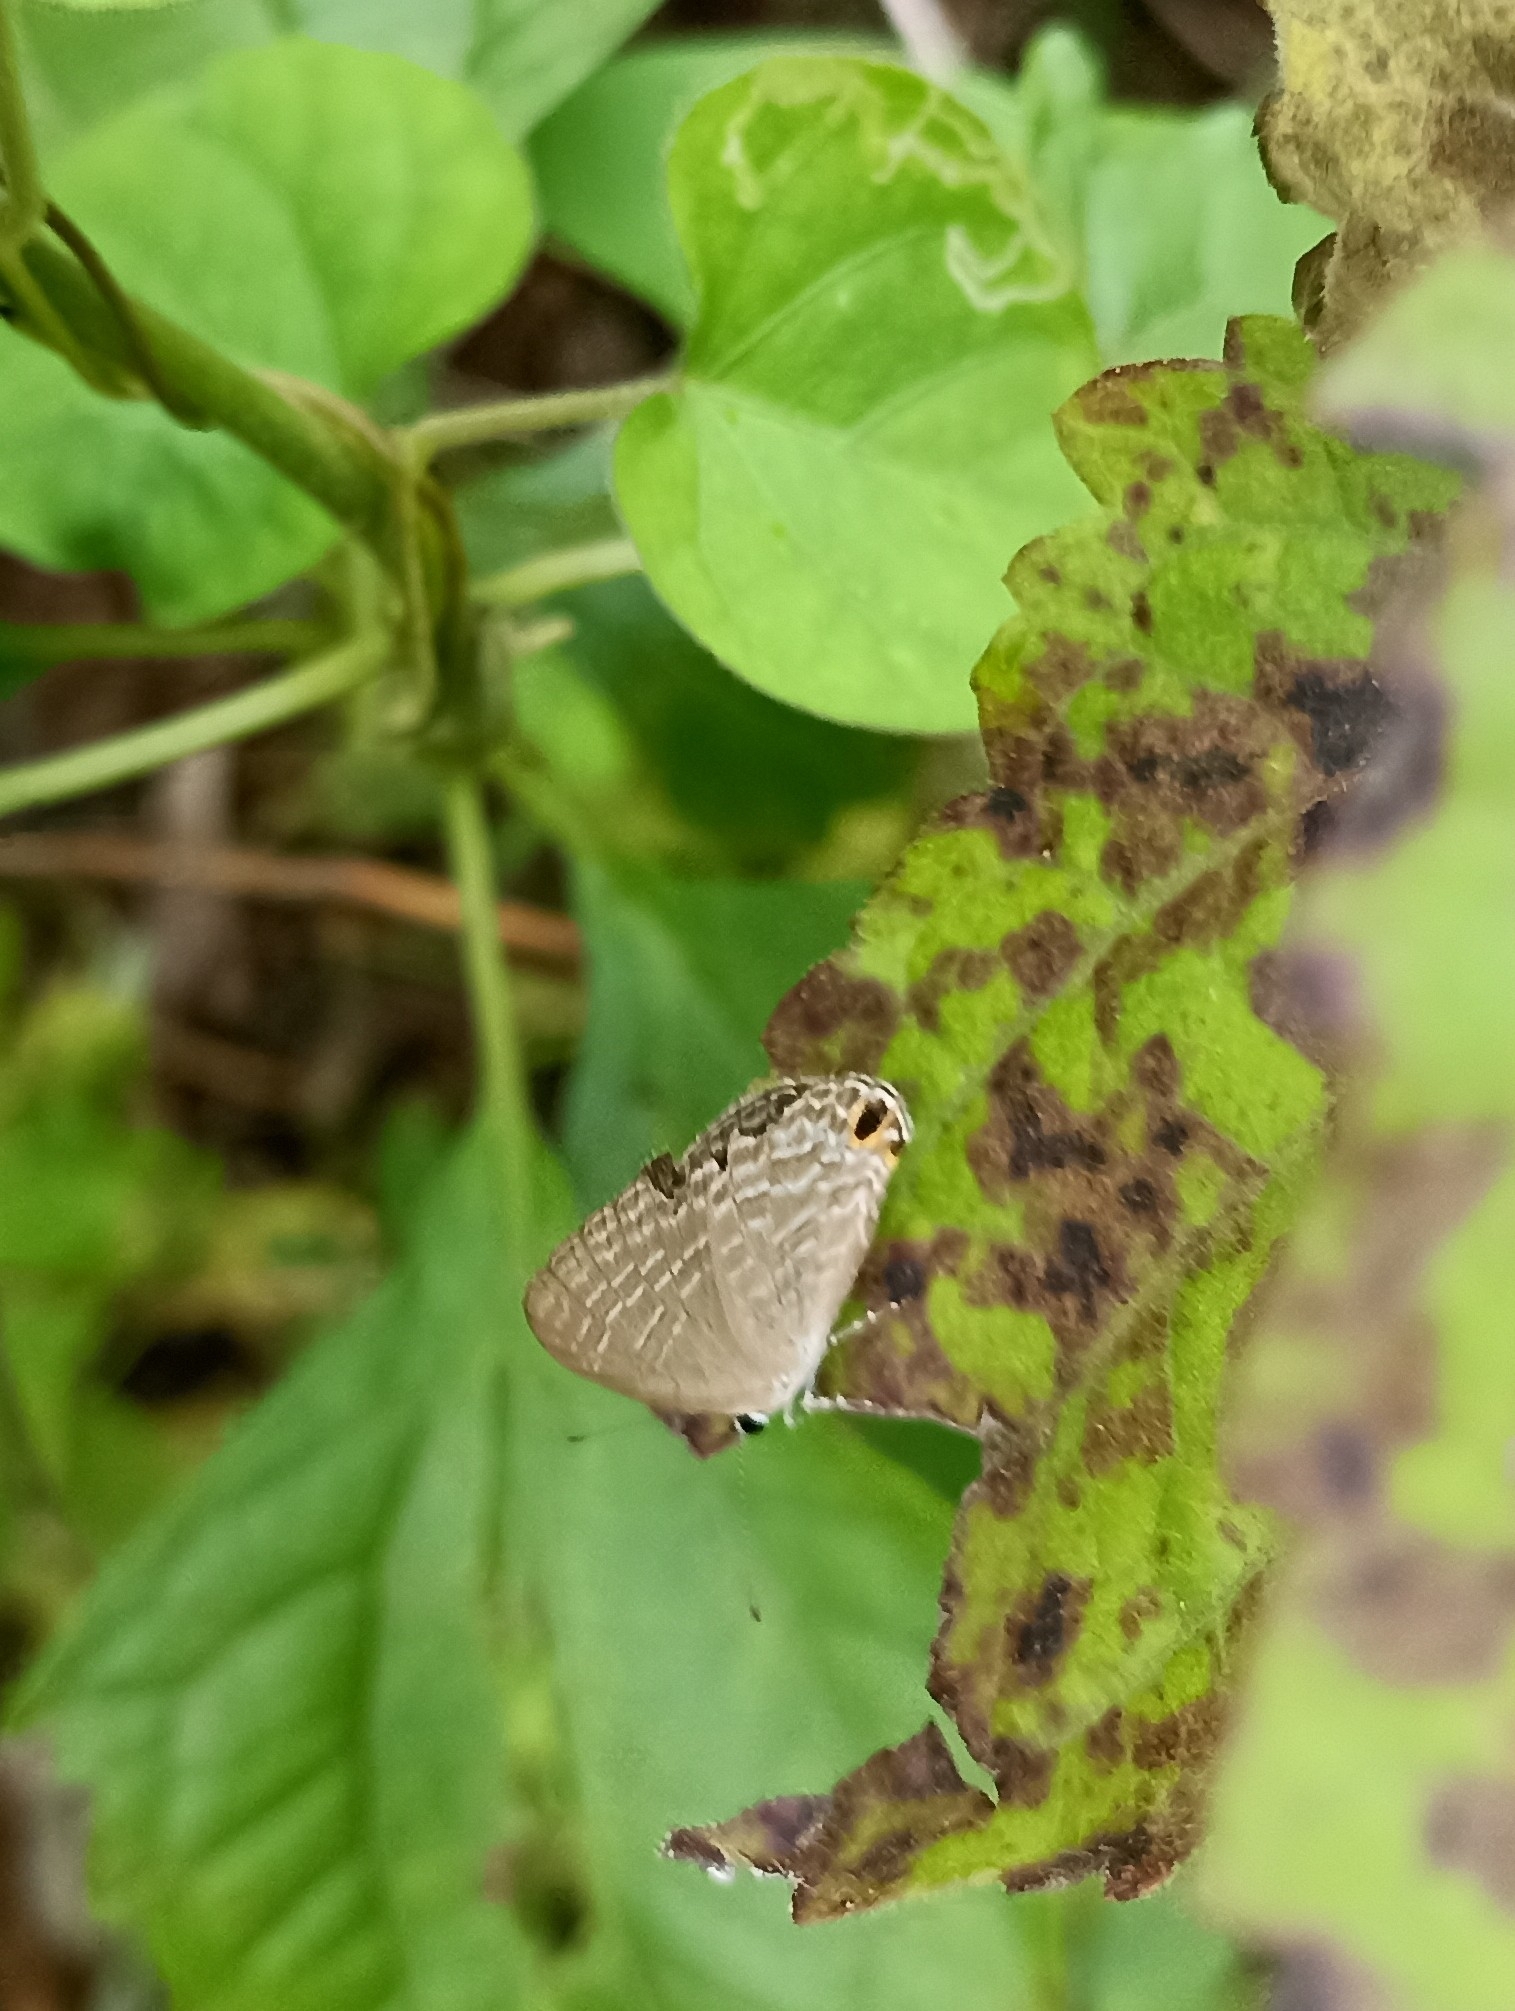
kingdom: Animalia
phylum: Arthropoda
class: Insecta
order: Lepidoptera
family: Lycaenidae
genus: Jamides
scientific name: Jamides bochus
